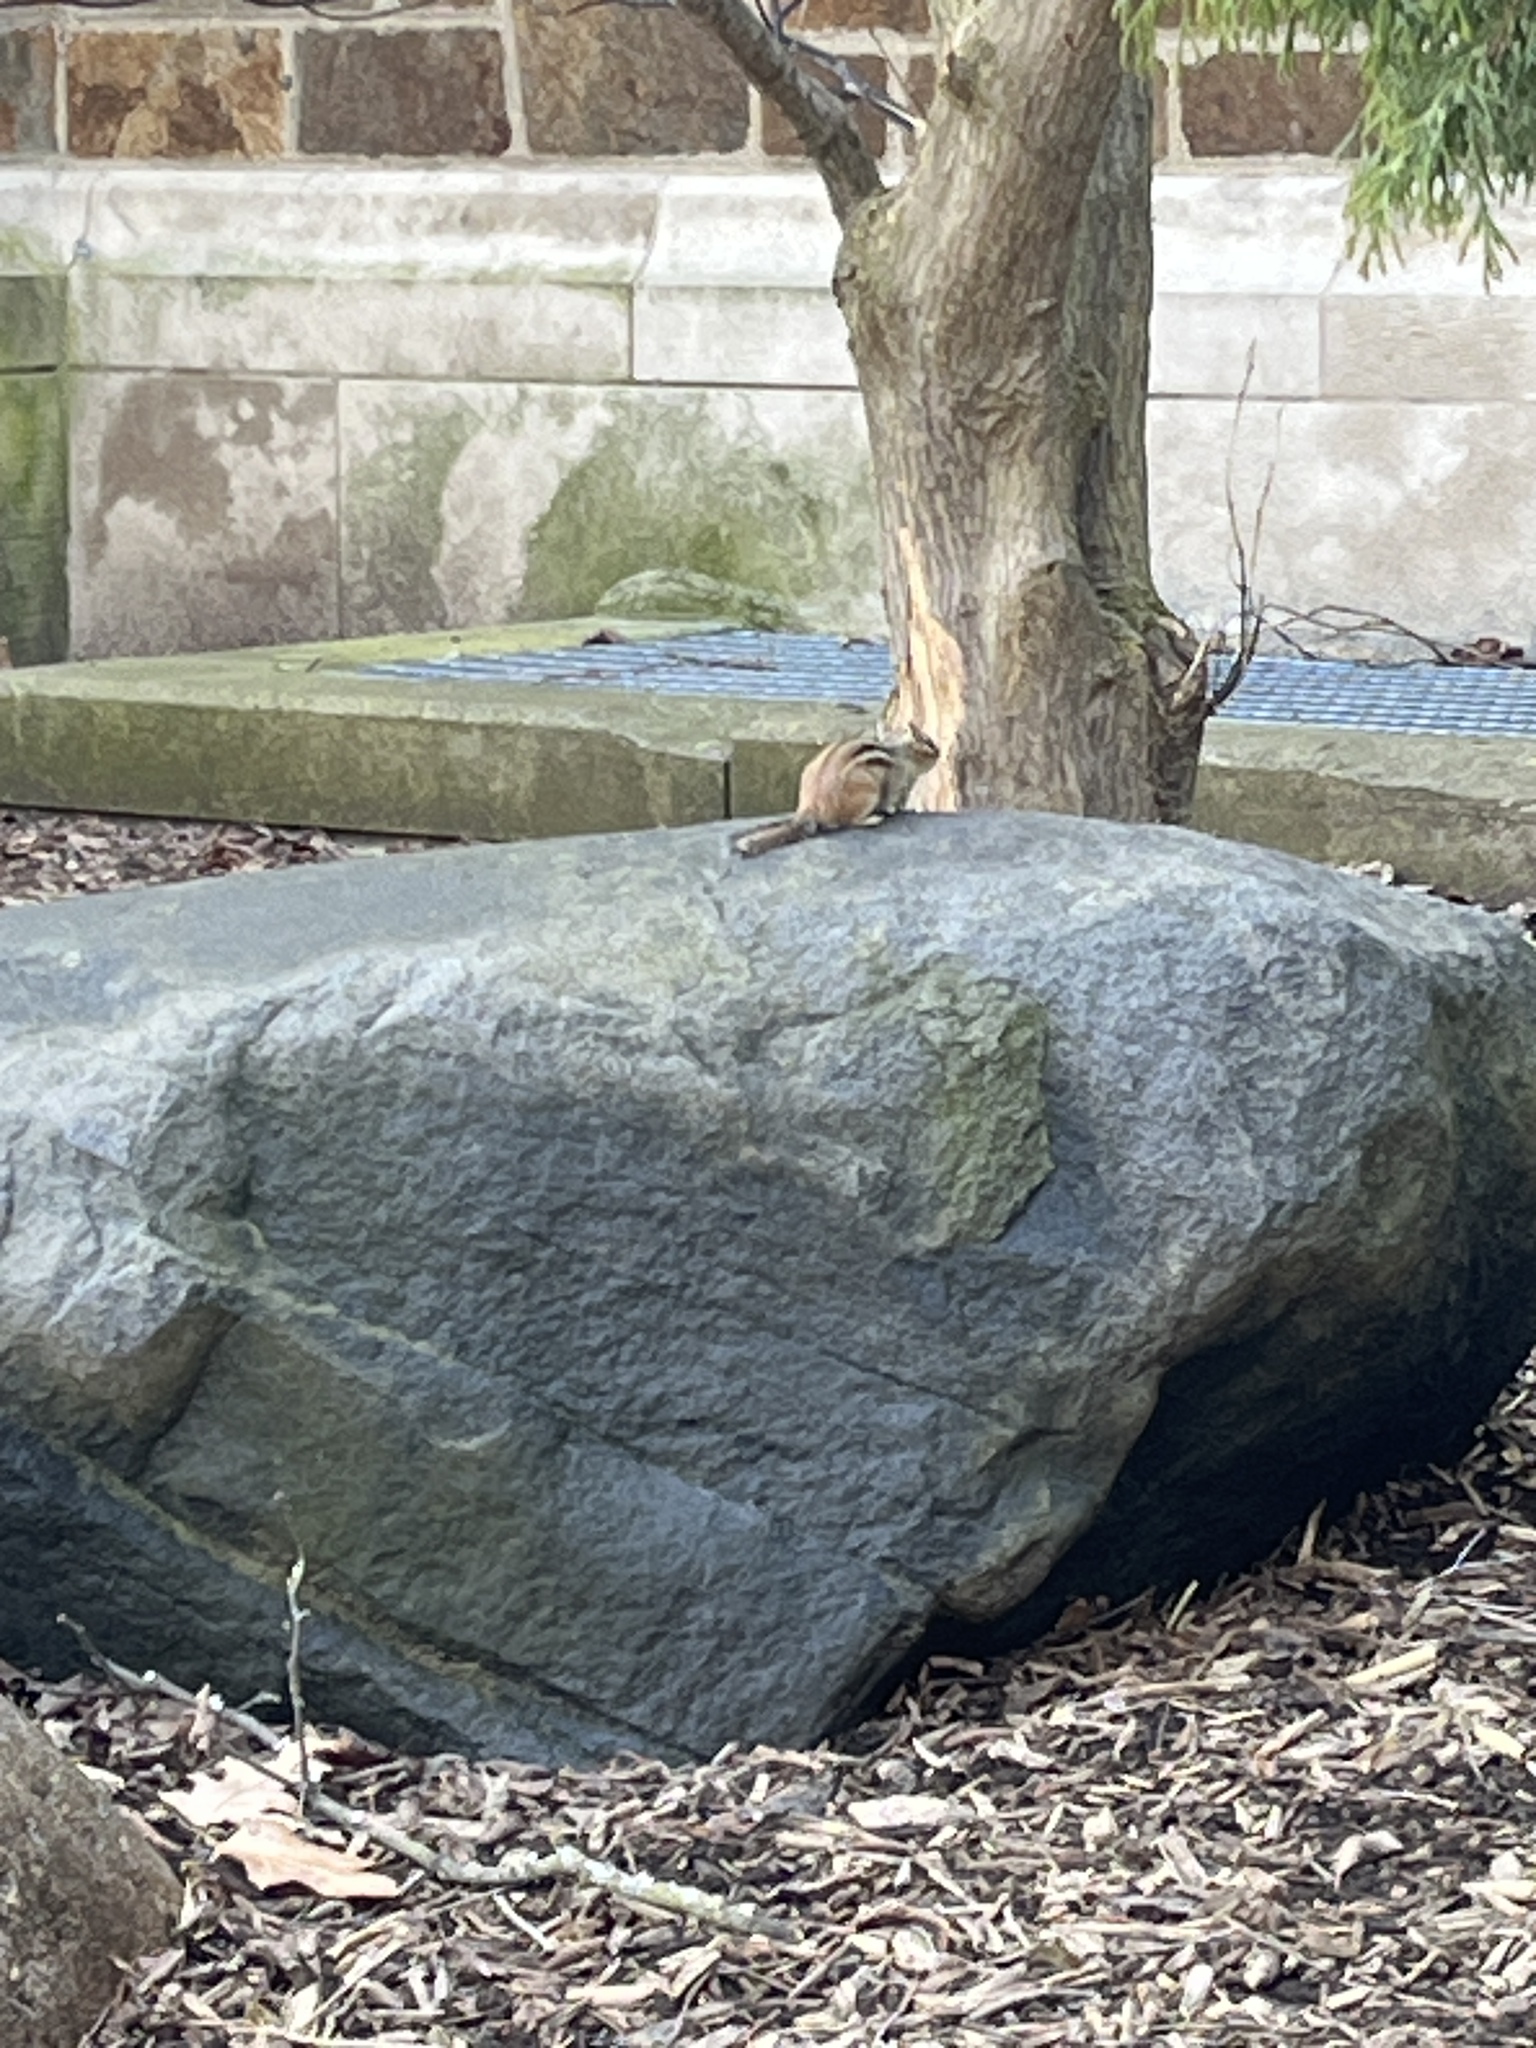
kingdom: Animalia
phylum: Chordata
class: Mammalia
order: Rodentia
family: Sciuridae
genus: Tamias
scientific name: Tamias striatus
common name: Eastern chipmunk
